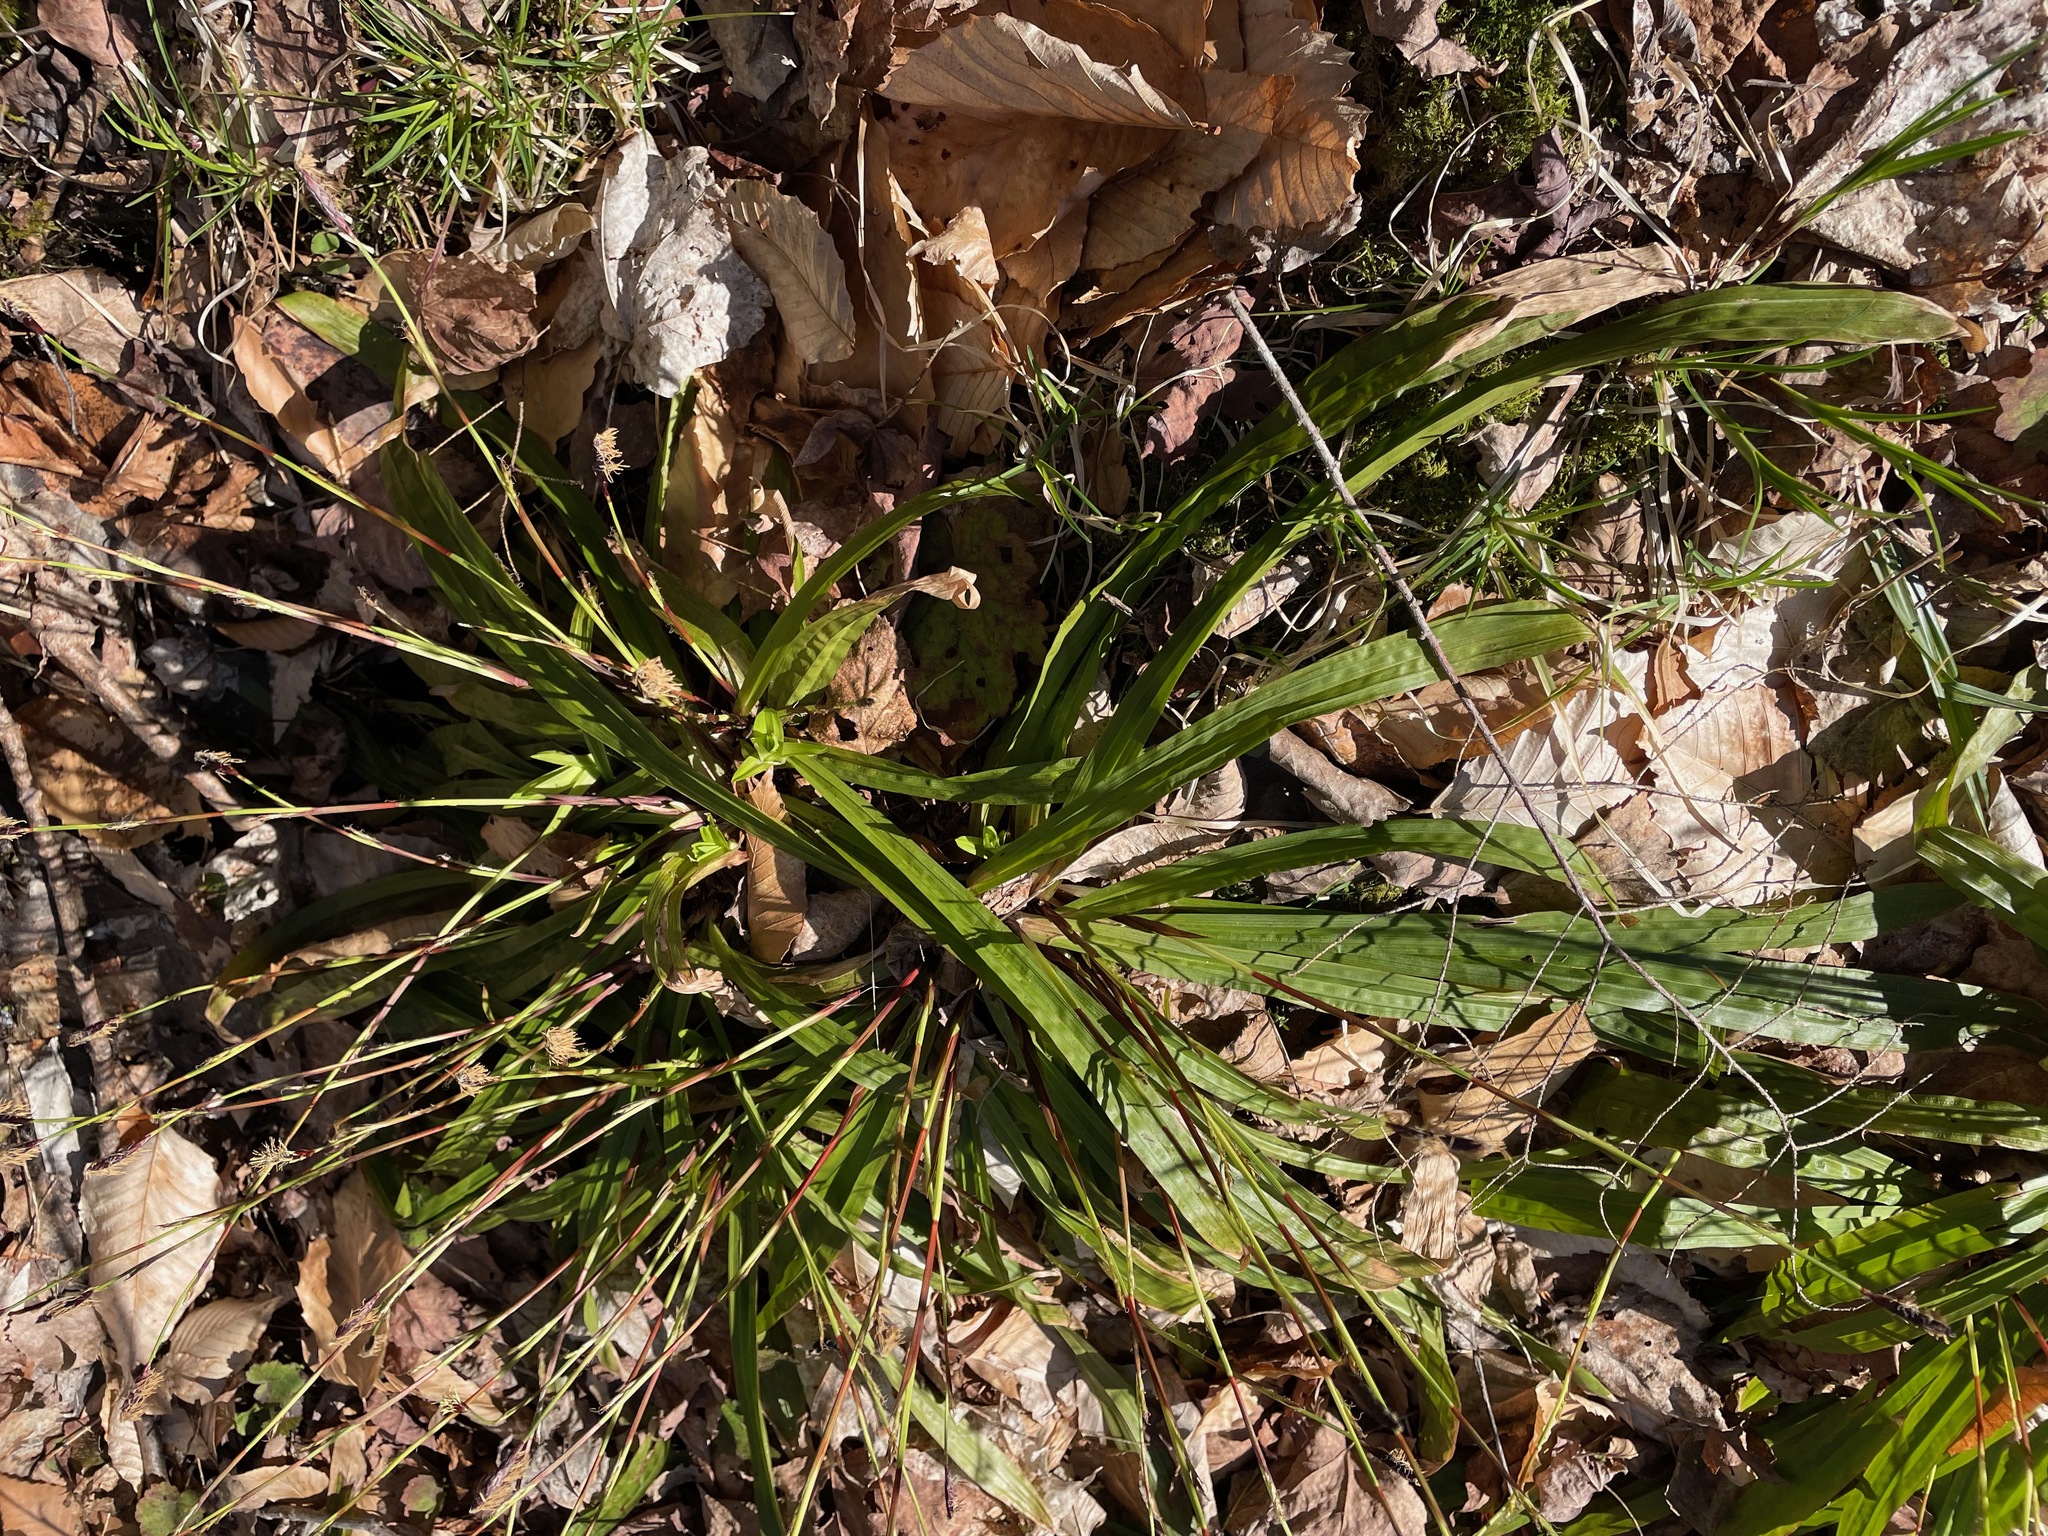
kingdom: Plantae
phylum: Tracheophyta
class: Liliopsida
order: Poales
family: Cyperaceae
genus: Carex
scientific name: Carex plantaginea
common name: Plantain-leaved sedge
